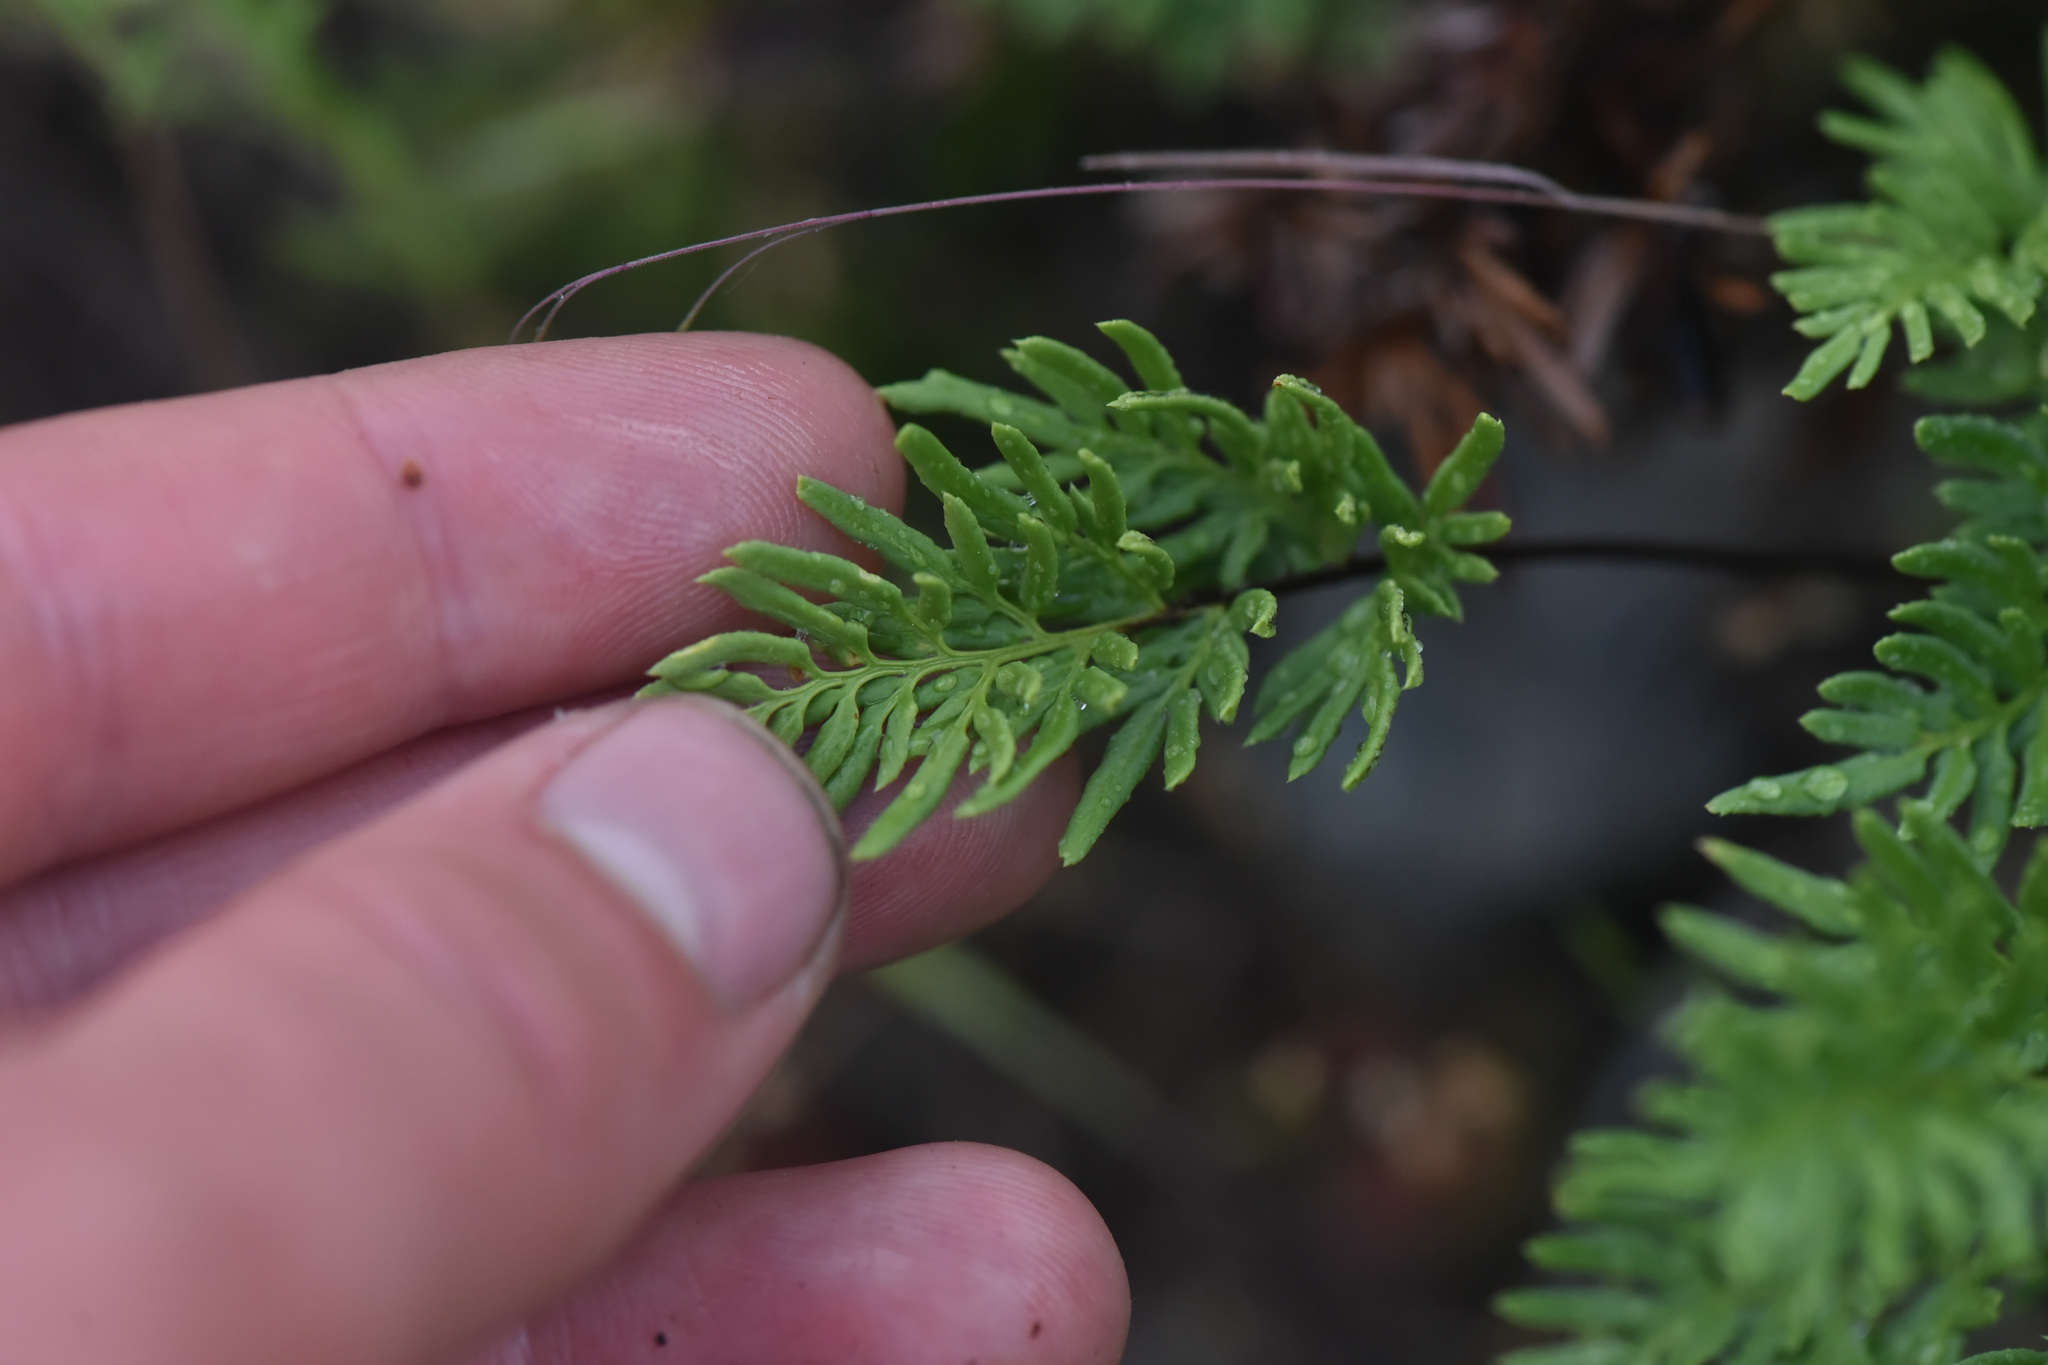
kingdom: Plantae
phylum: Tracheophyta
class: Polypodiopsida
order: Polypodiales
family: Pteridaceae
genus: Aspidotis
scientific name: Aspidotis densa
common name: Indian's dream
